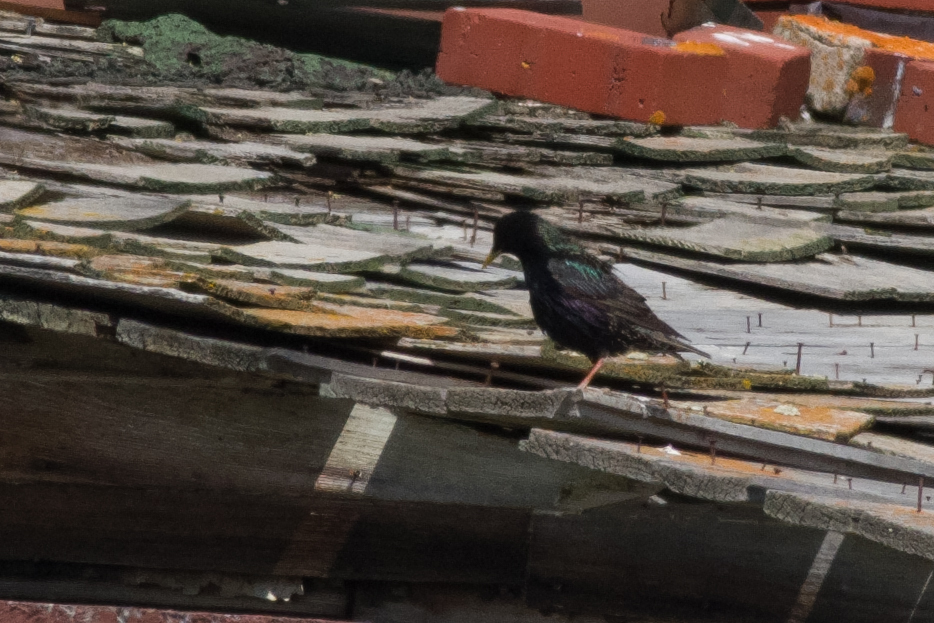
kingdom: Animalia
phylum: Chordata
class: Aves
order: Passeriformes
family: Sturnidae
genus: Sturnus
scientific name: Sturnus vulgaris
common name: Common starling
